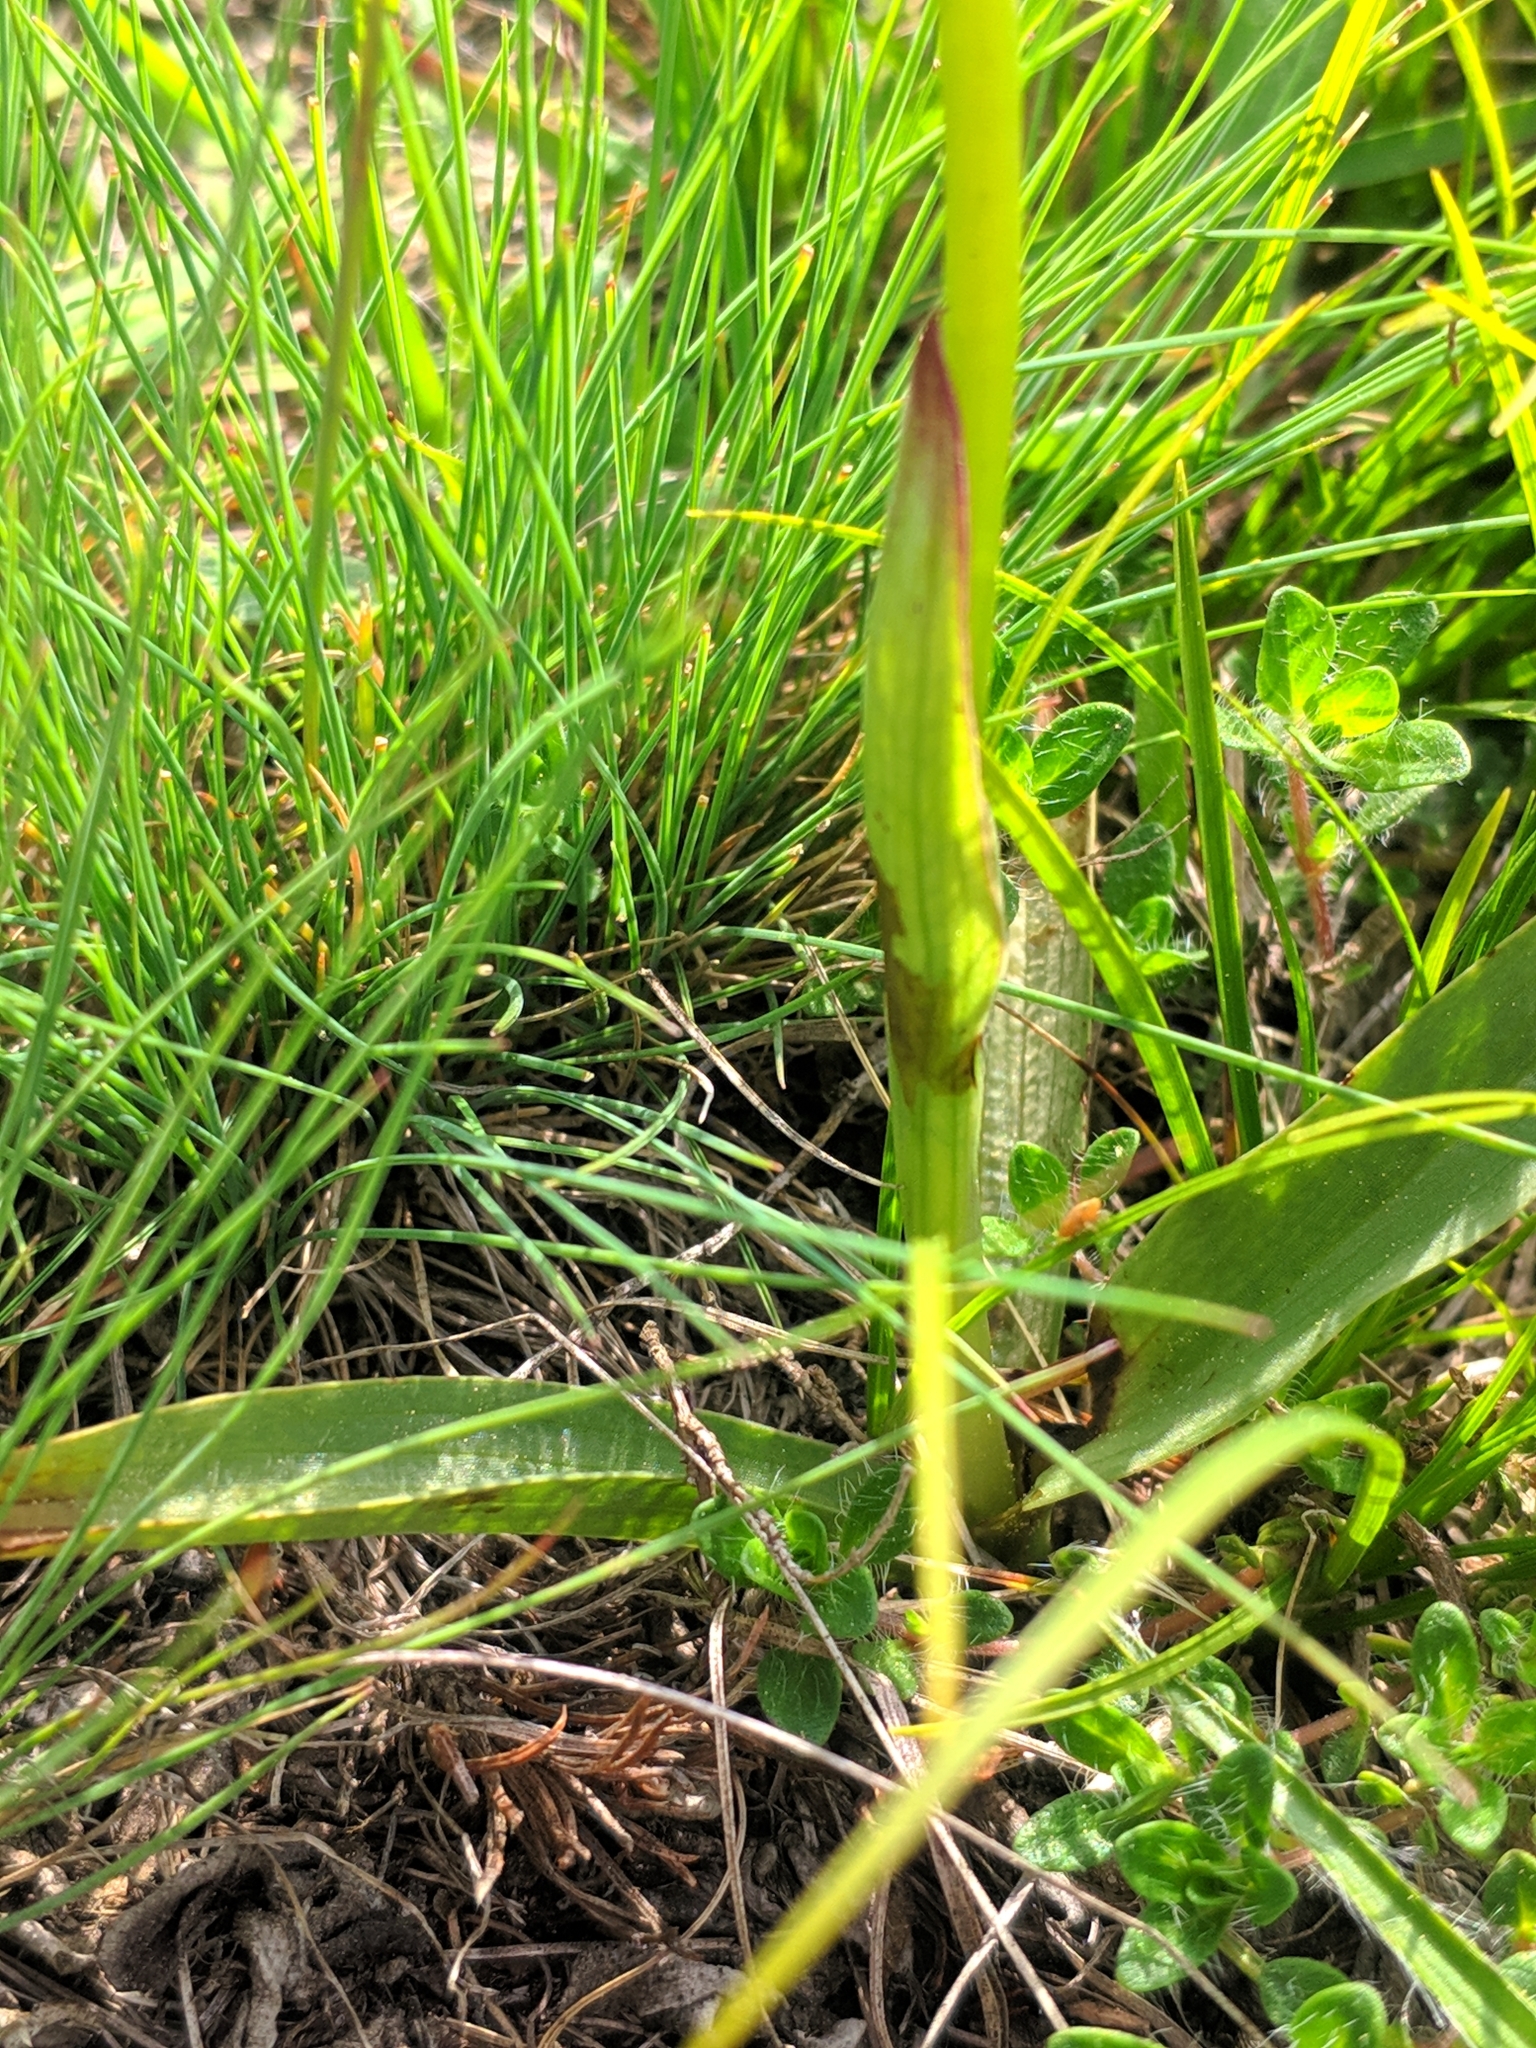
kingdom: Plantae
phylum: Tracheophyta
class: Liliopsida
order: Asparagales
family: Orchidaceae
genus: Neotinea
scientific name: Neotinea ustulata
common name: Burnt orchid
